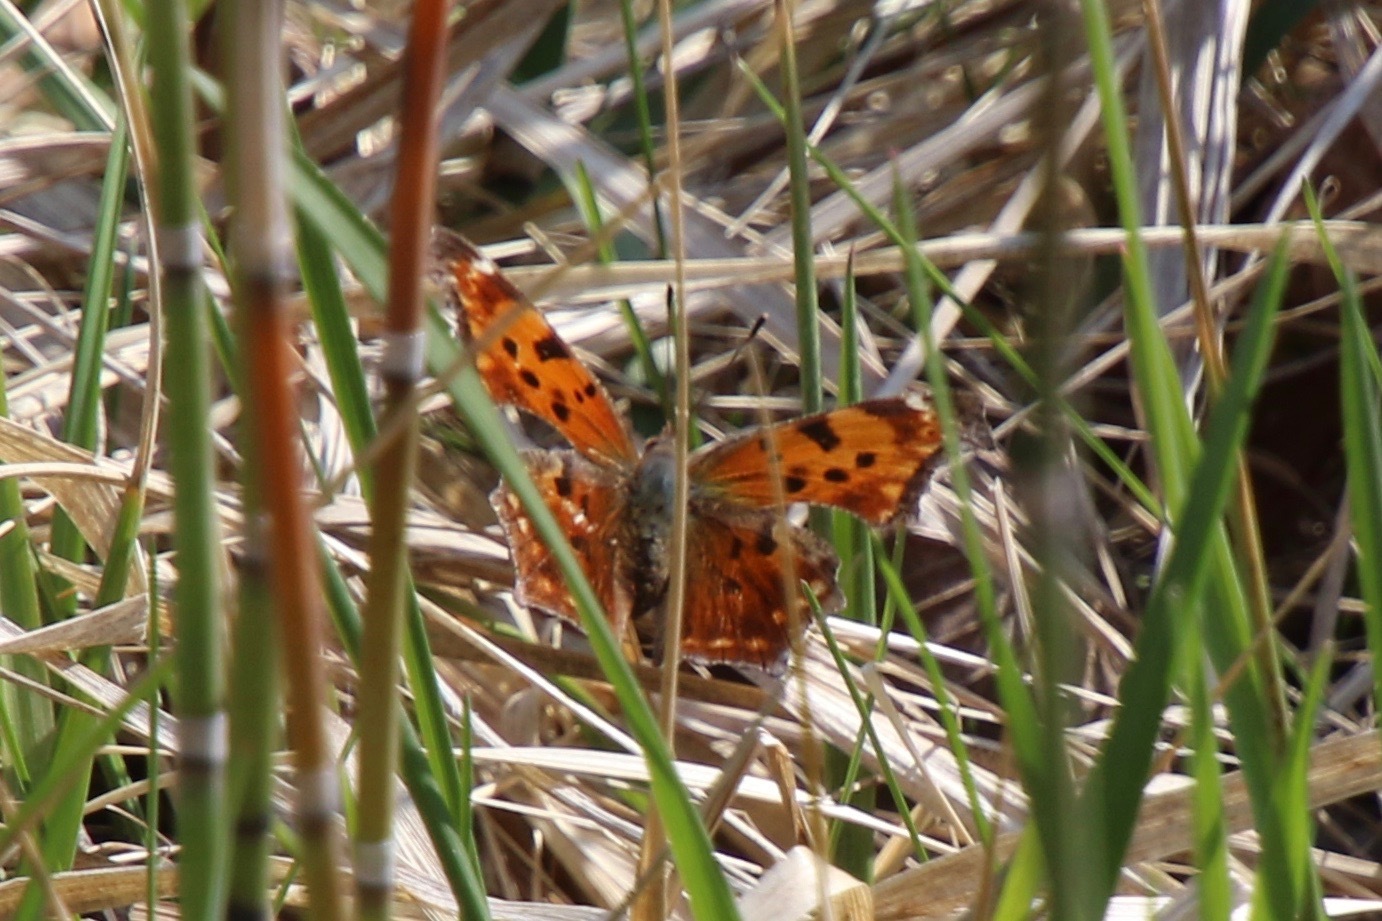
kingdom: Animalia
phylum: Arthropoda
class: Insecta
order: Lepidoptera
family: Nymphalidae
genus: Polygonia
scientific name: Polygonia comma
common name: Eastern comma
